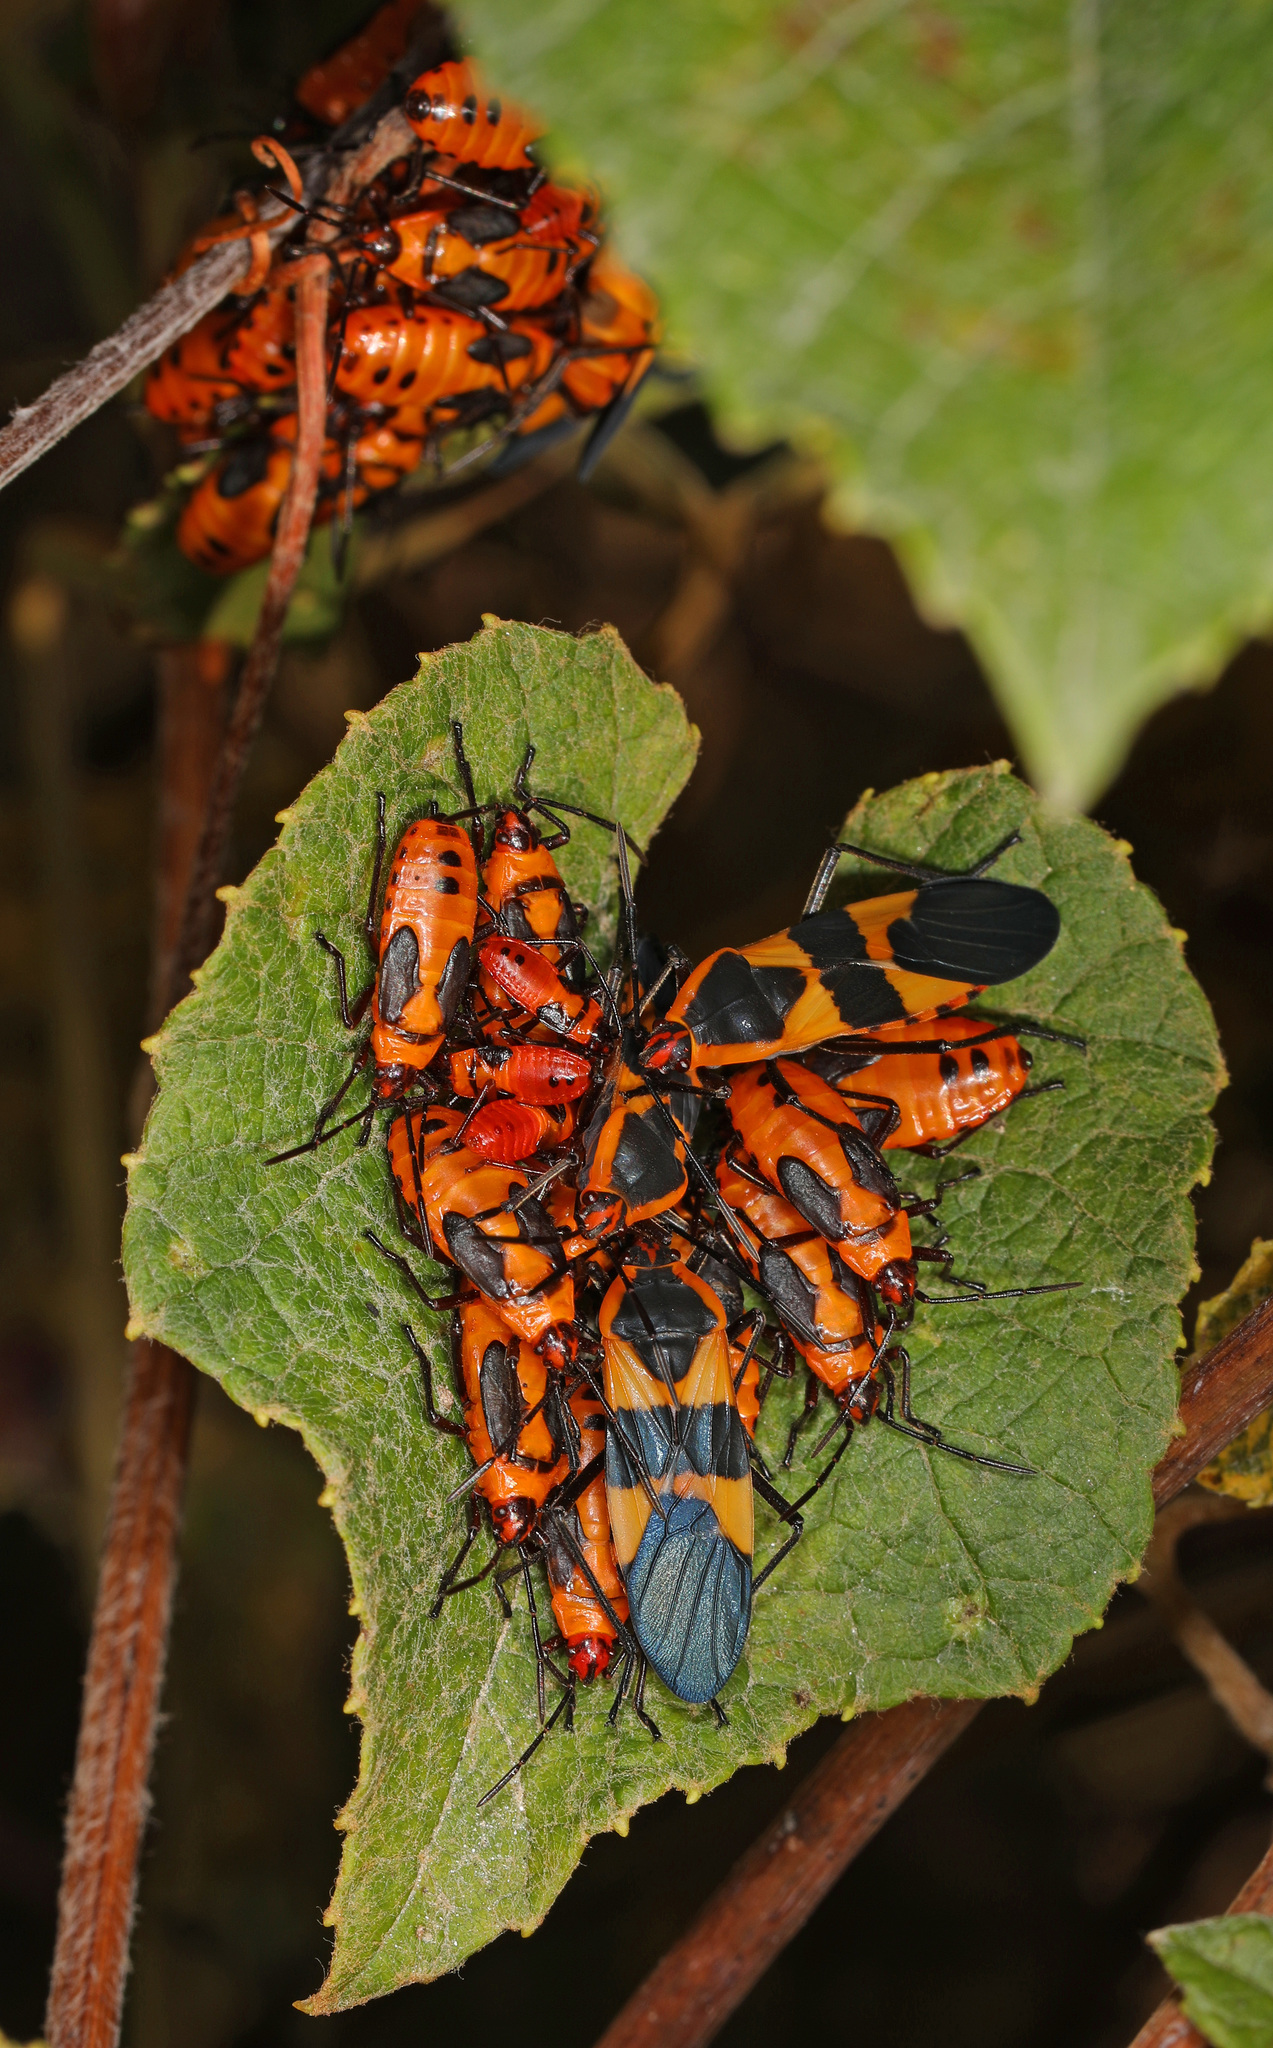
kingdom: Animalia
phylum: Arthropoda
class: Insecta
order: Hemiptera
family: Lygaeidae
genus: Oncopeltus
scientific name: Oncopeltus fasciatus
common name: Large milkweed bug
